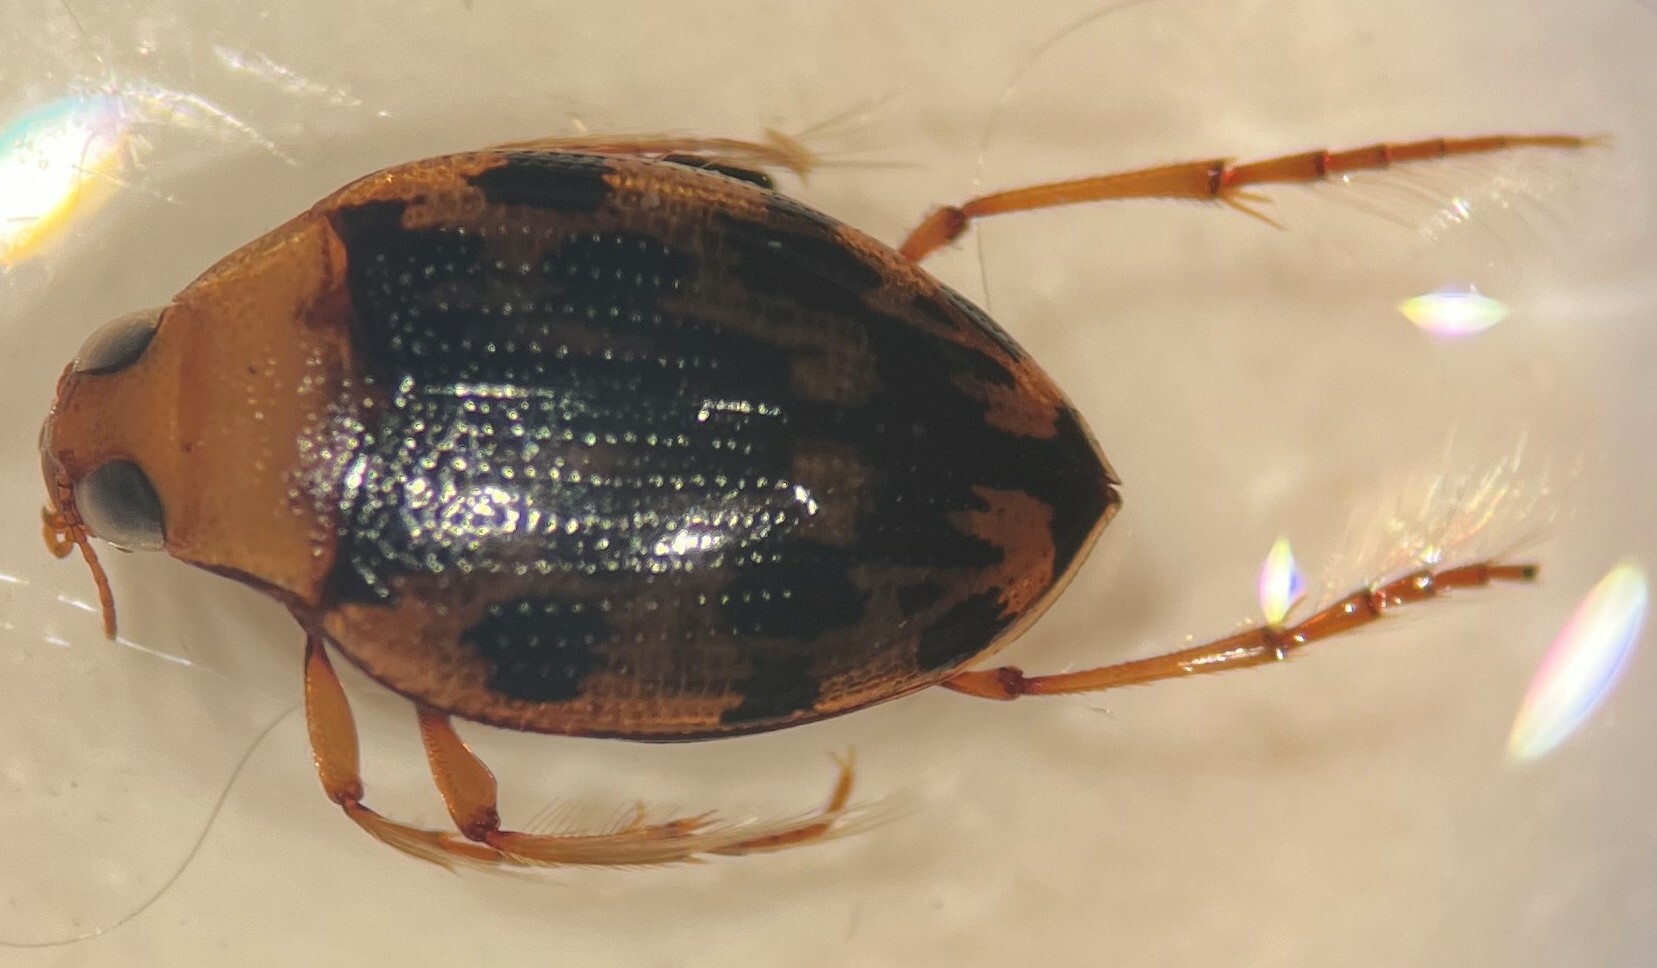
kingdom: Animalia
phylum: Arthropoda
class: Insecta
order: Coleoptera
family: Haliplidae
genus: Haliplus
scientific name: Haliplus fasciatus
